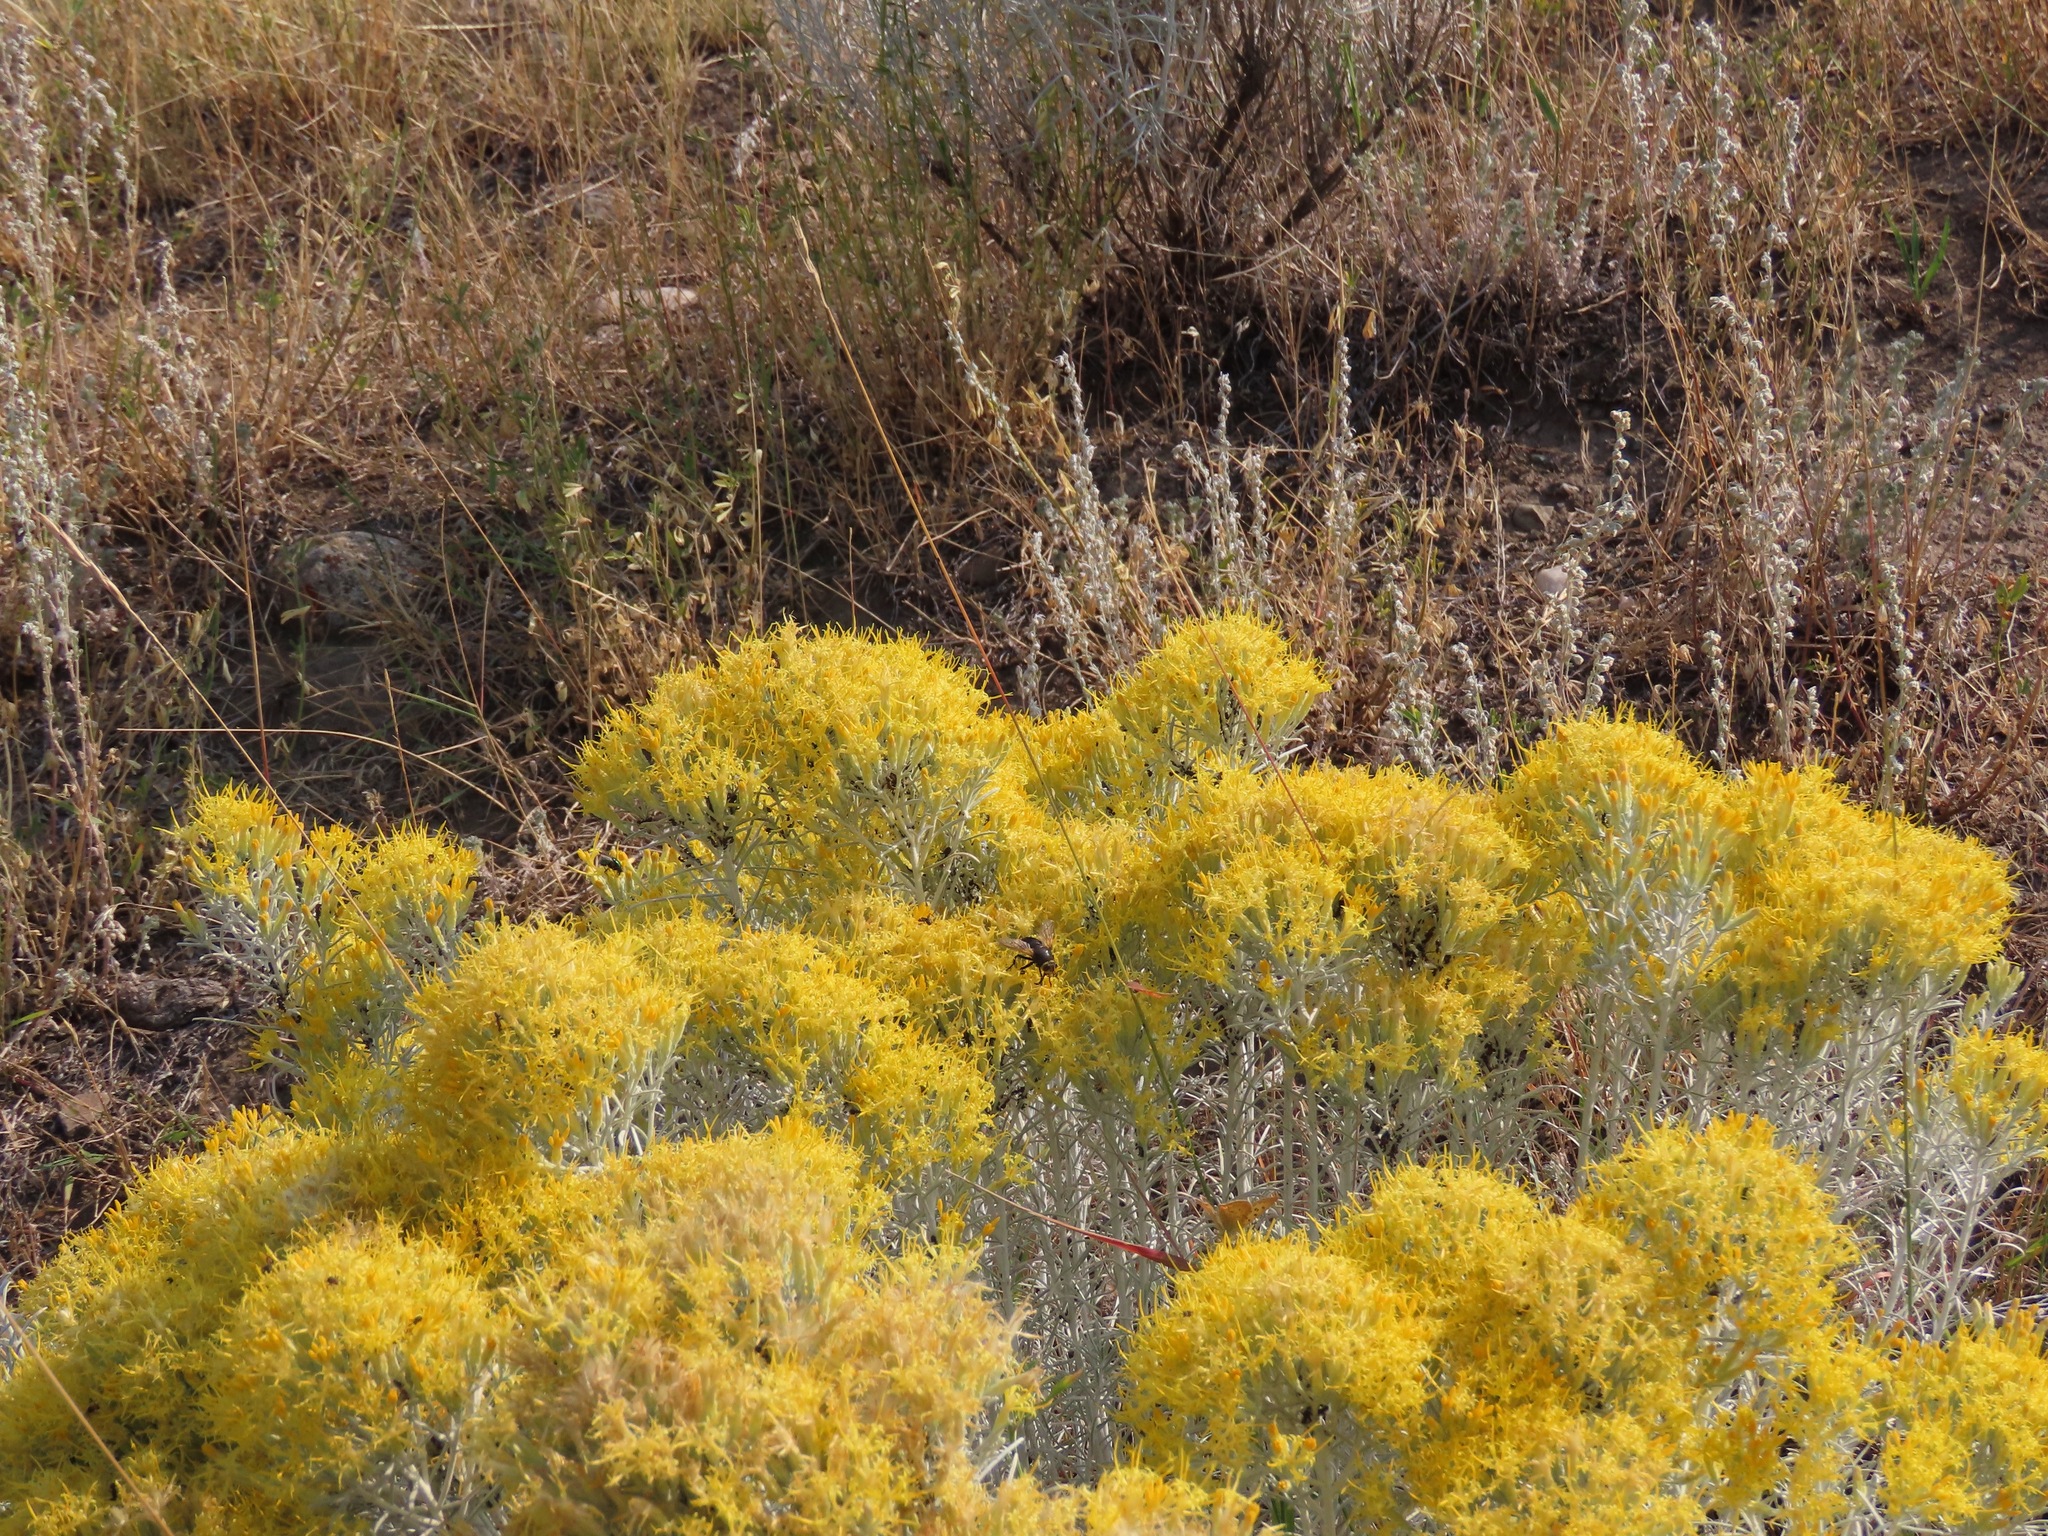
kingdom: Plantae
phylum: Tracheophyta
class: Magnoliopsida
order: Asterales
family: Asteraceae
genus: Ericameria
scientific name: Ericameria nauseosa
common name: Rubber rabbitbrush
